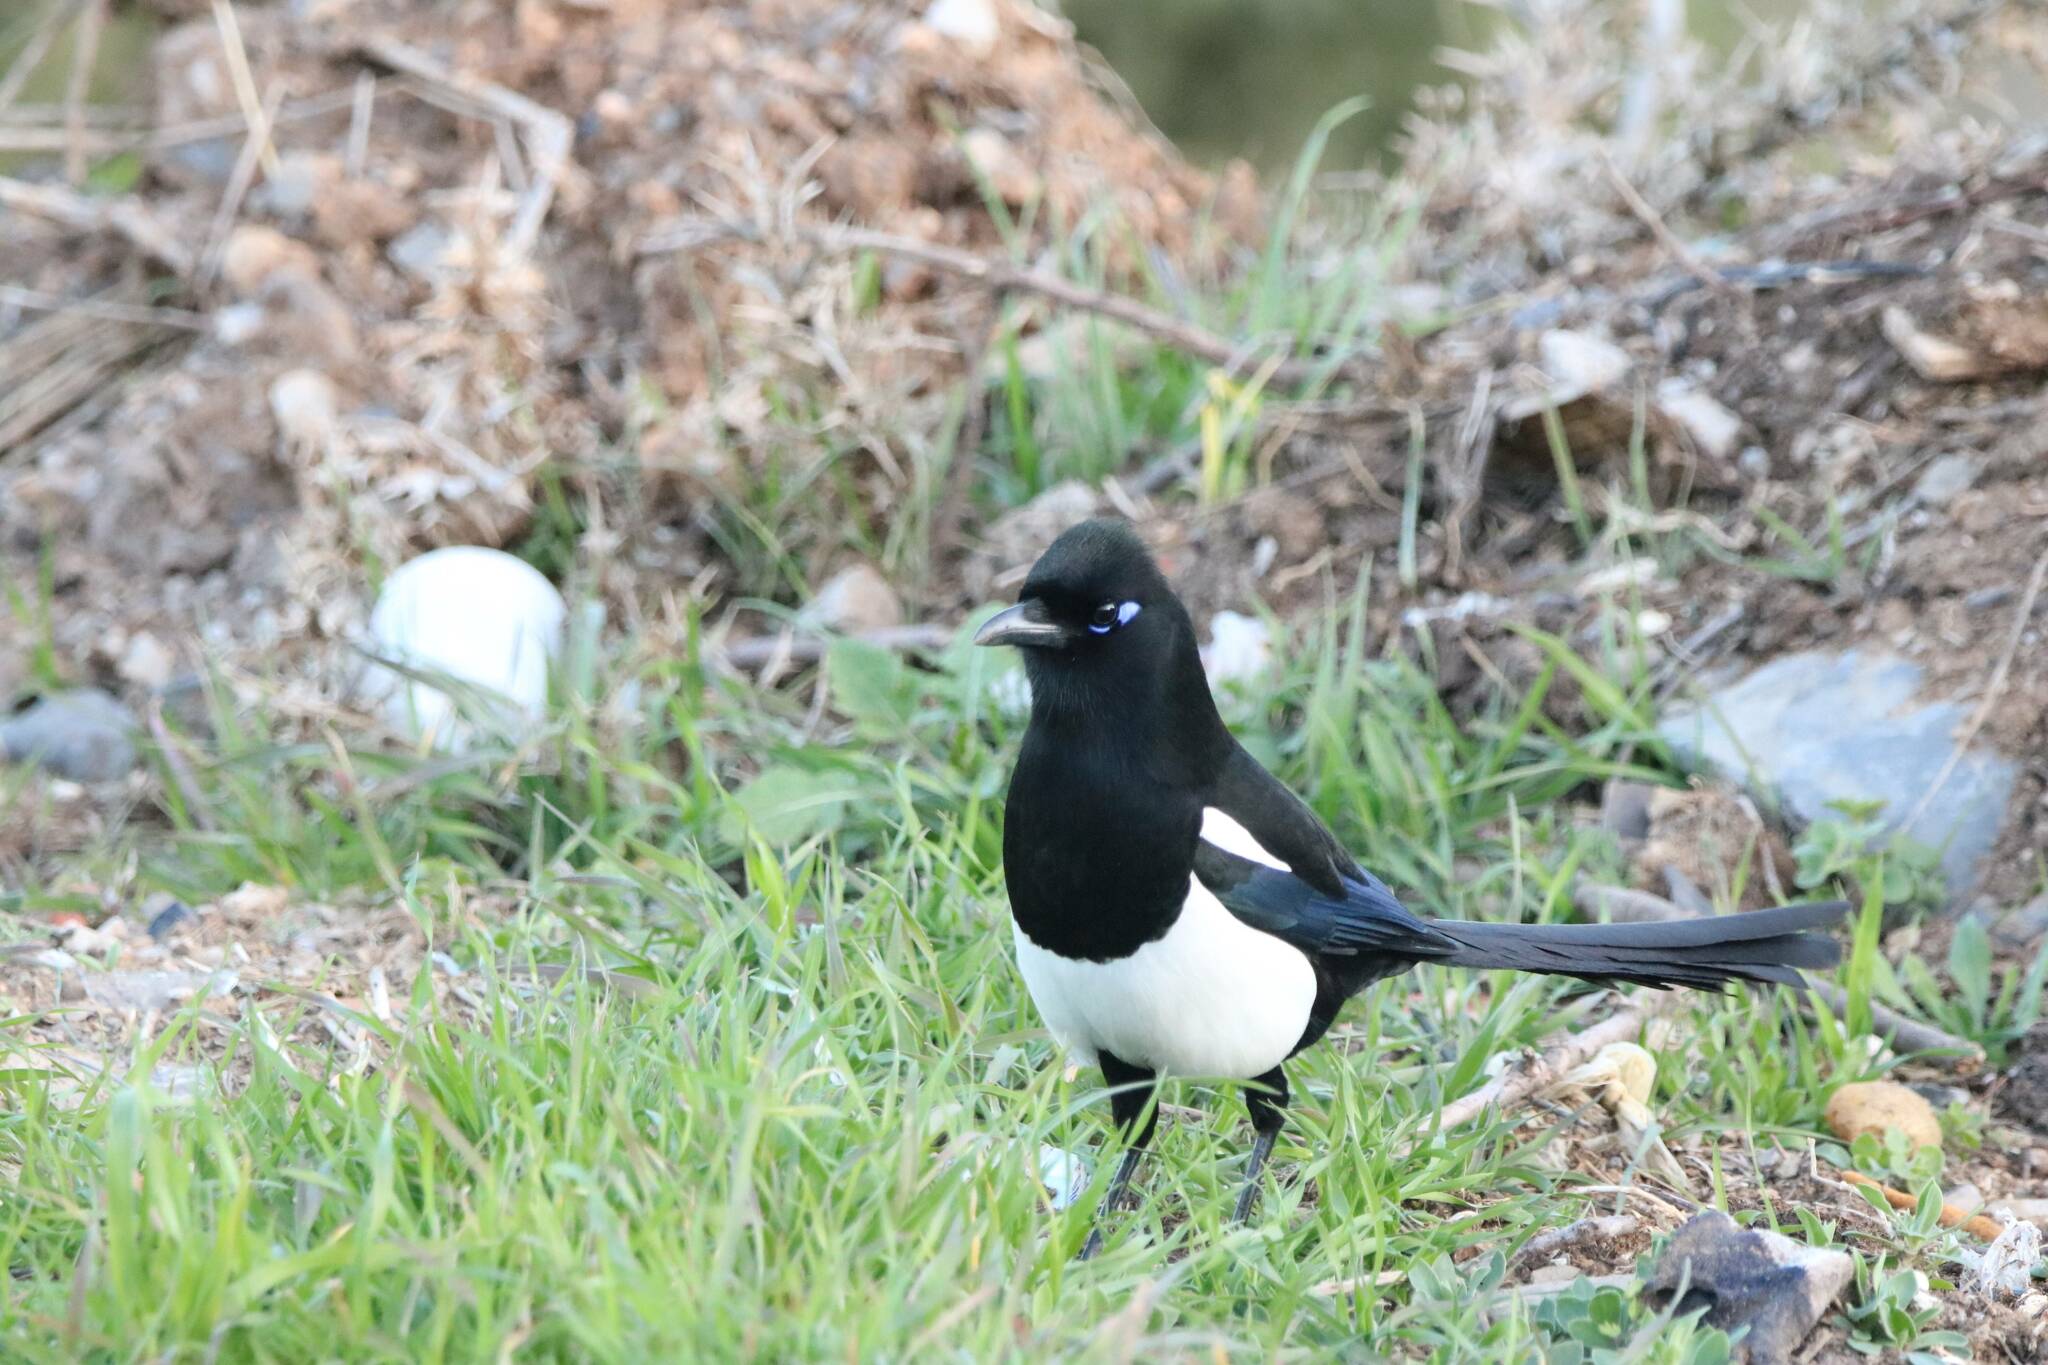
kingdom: Animalia
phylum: Chordata
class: Aves
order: Passeriformes
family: Corvidae
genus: Pica
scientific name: Pica mauritanica
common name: Maghreb magpie
